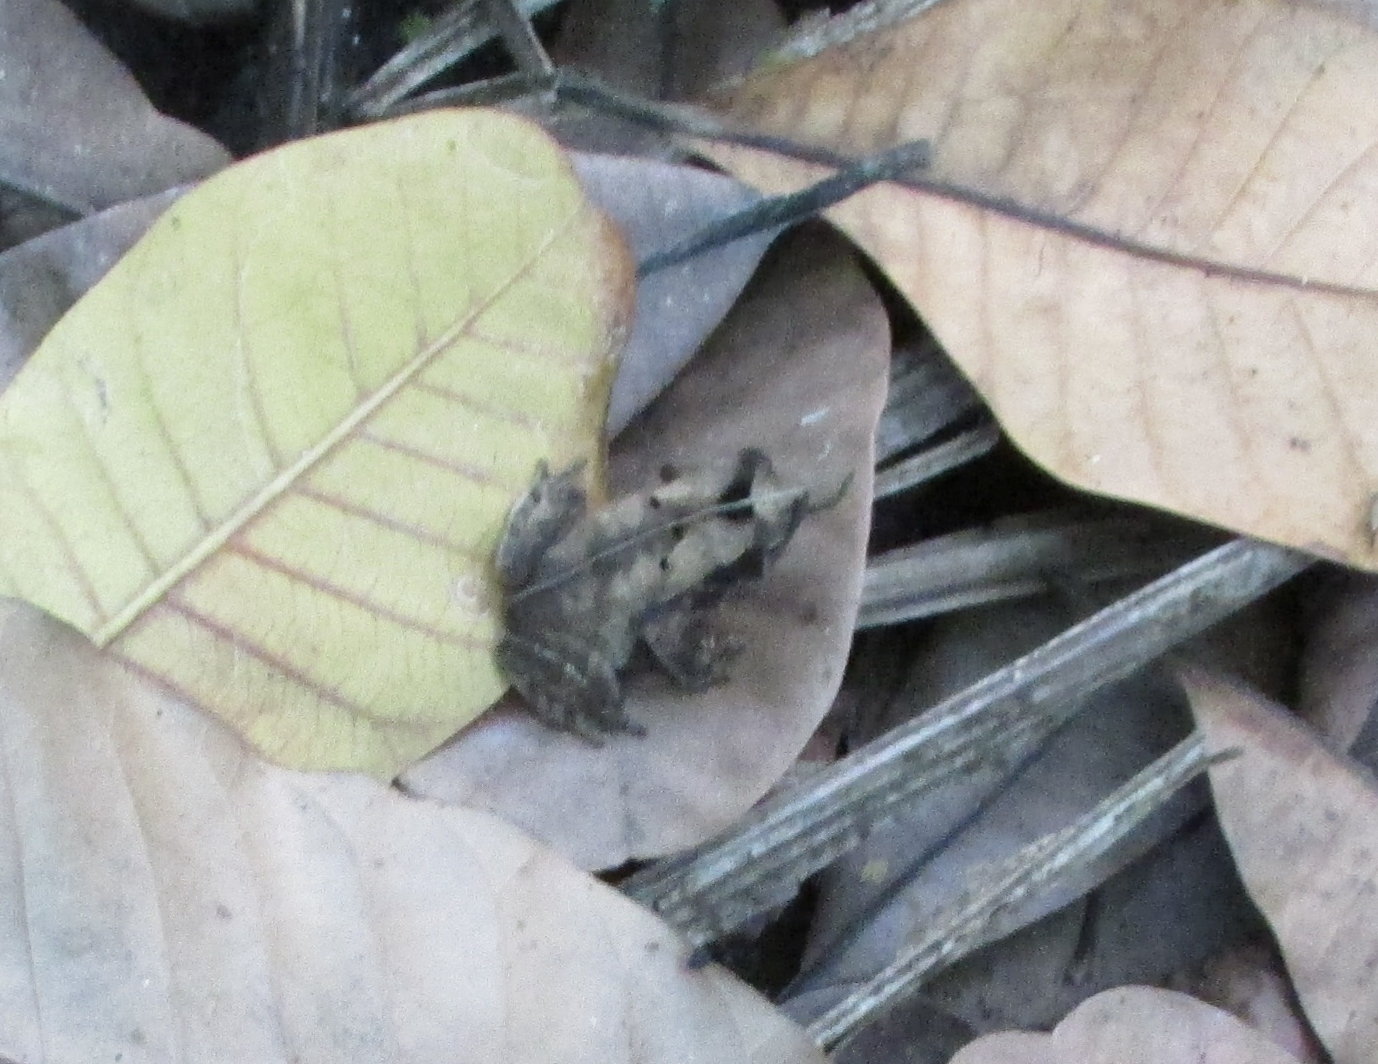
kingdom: Animalia
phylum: Chordata
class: Amphibia
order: Anura
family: Bufonidae
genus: Rhinella
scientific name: Rhinella alata
